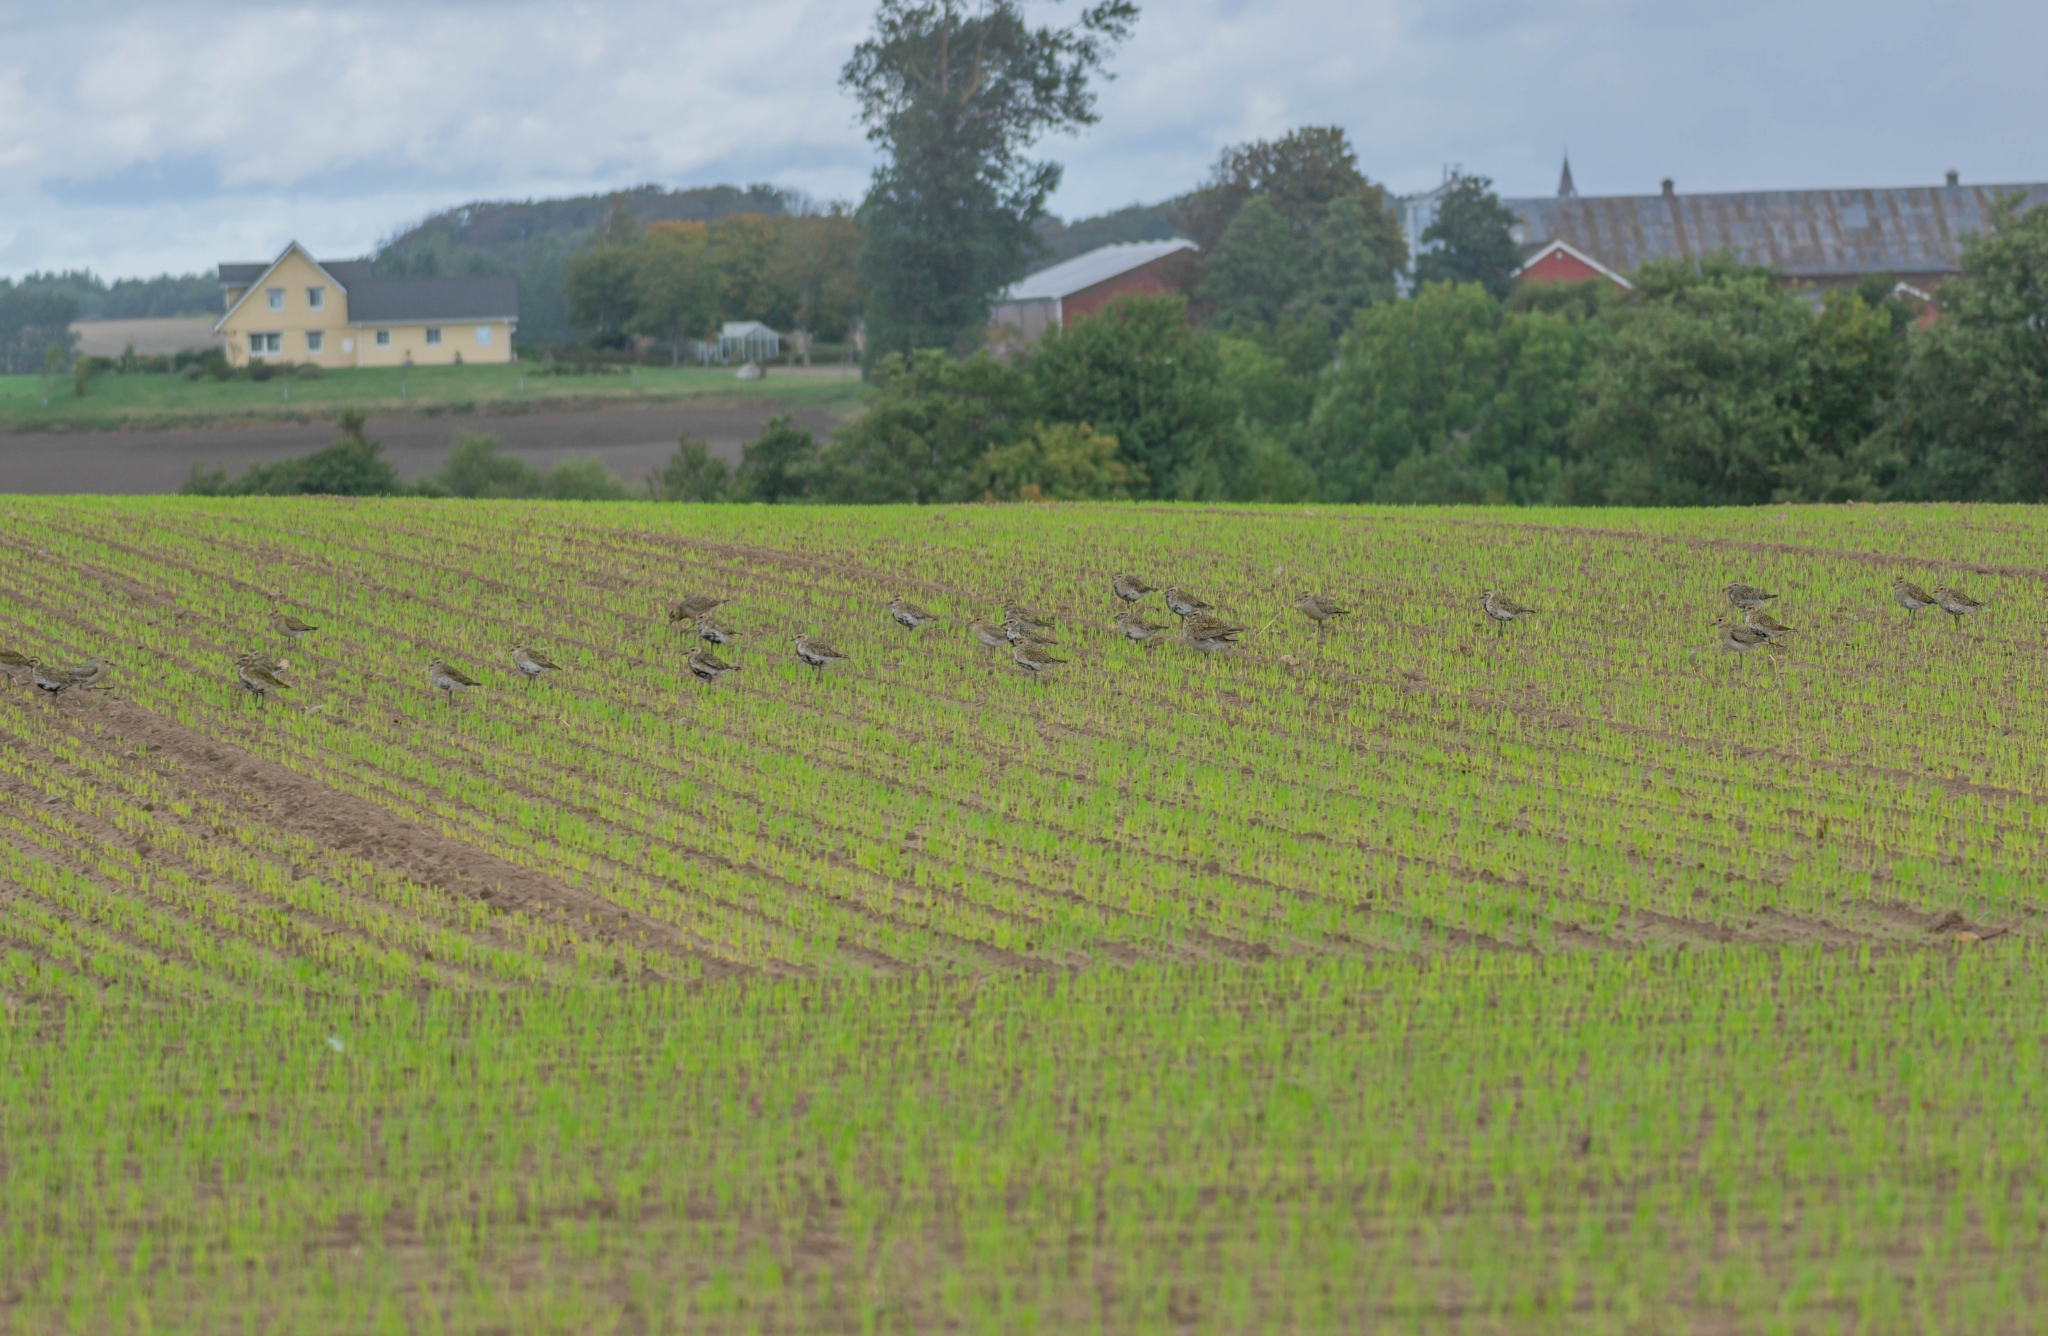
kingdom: Animalia
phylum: Chordata
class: Aves
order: Charadriiformes
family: Charadriidae
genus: Pluvialis
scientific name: Pluvialis apricaria
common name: European golden plover
